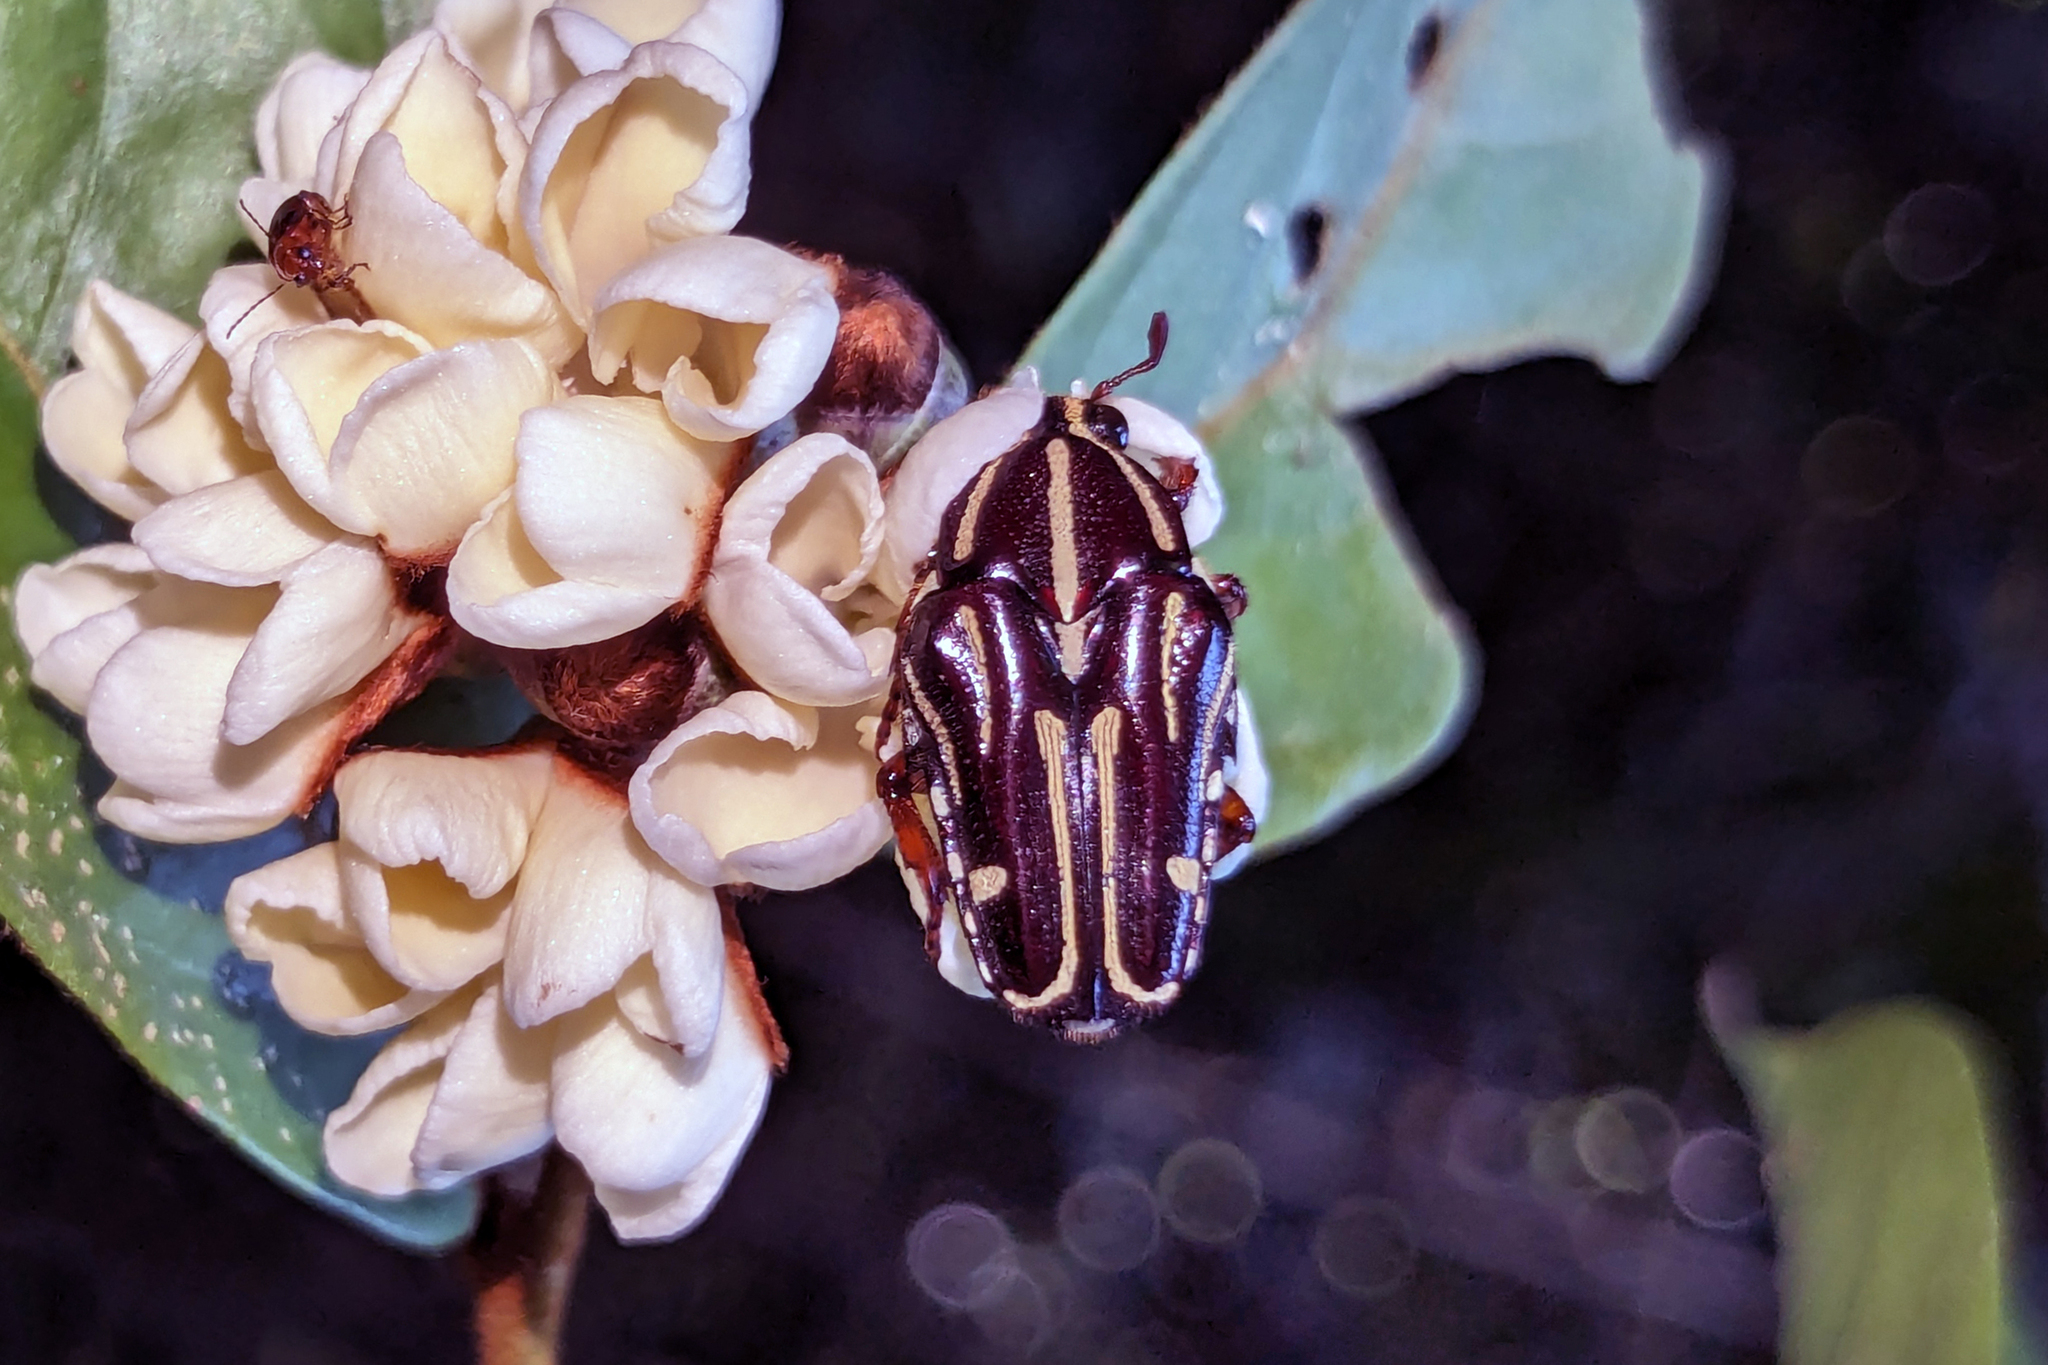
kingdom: Animalia
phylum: Arthropoda
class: Insecta
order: Coleoptera
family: Scarabaeidae
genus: Ixorida
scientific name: Ixorida ornata
